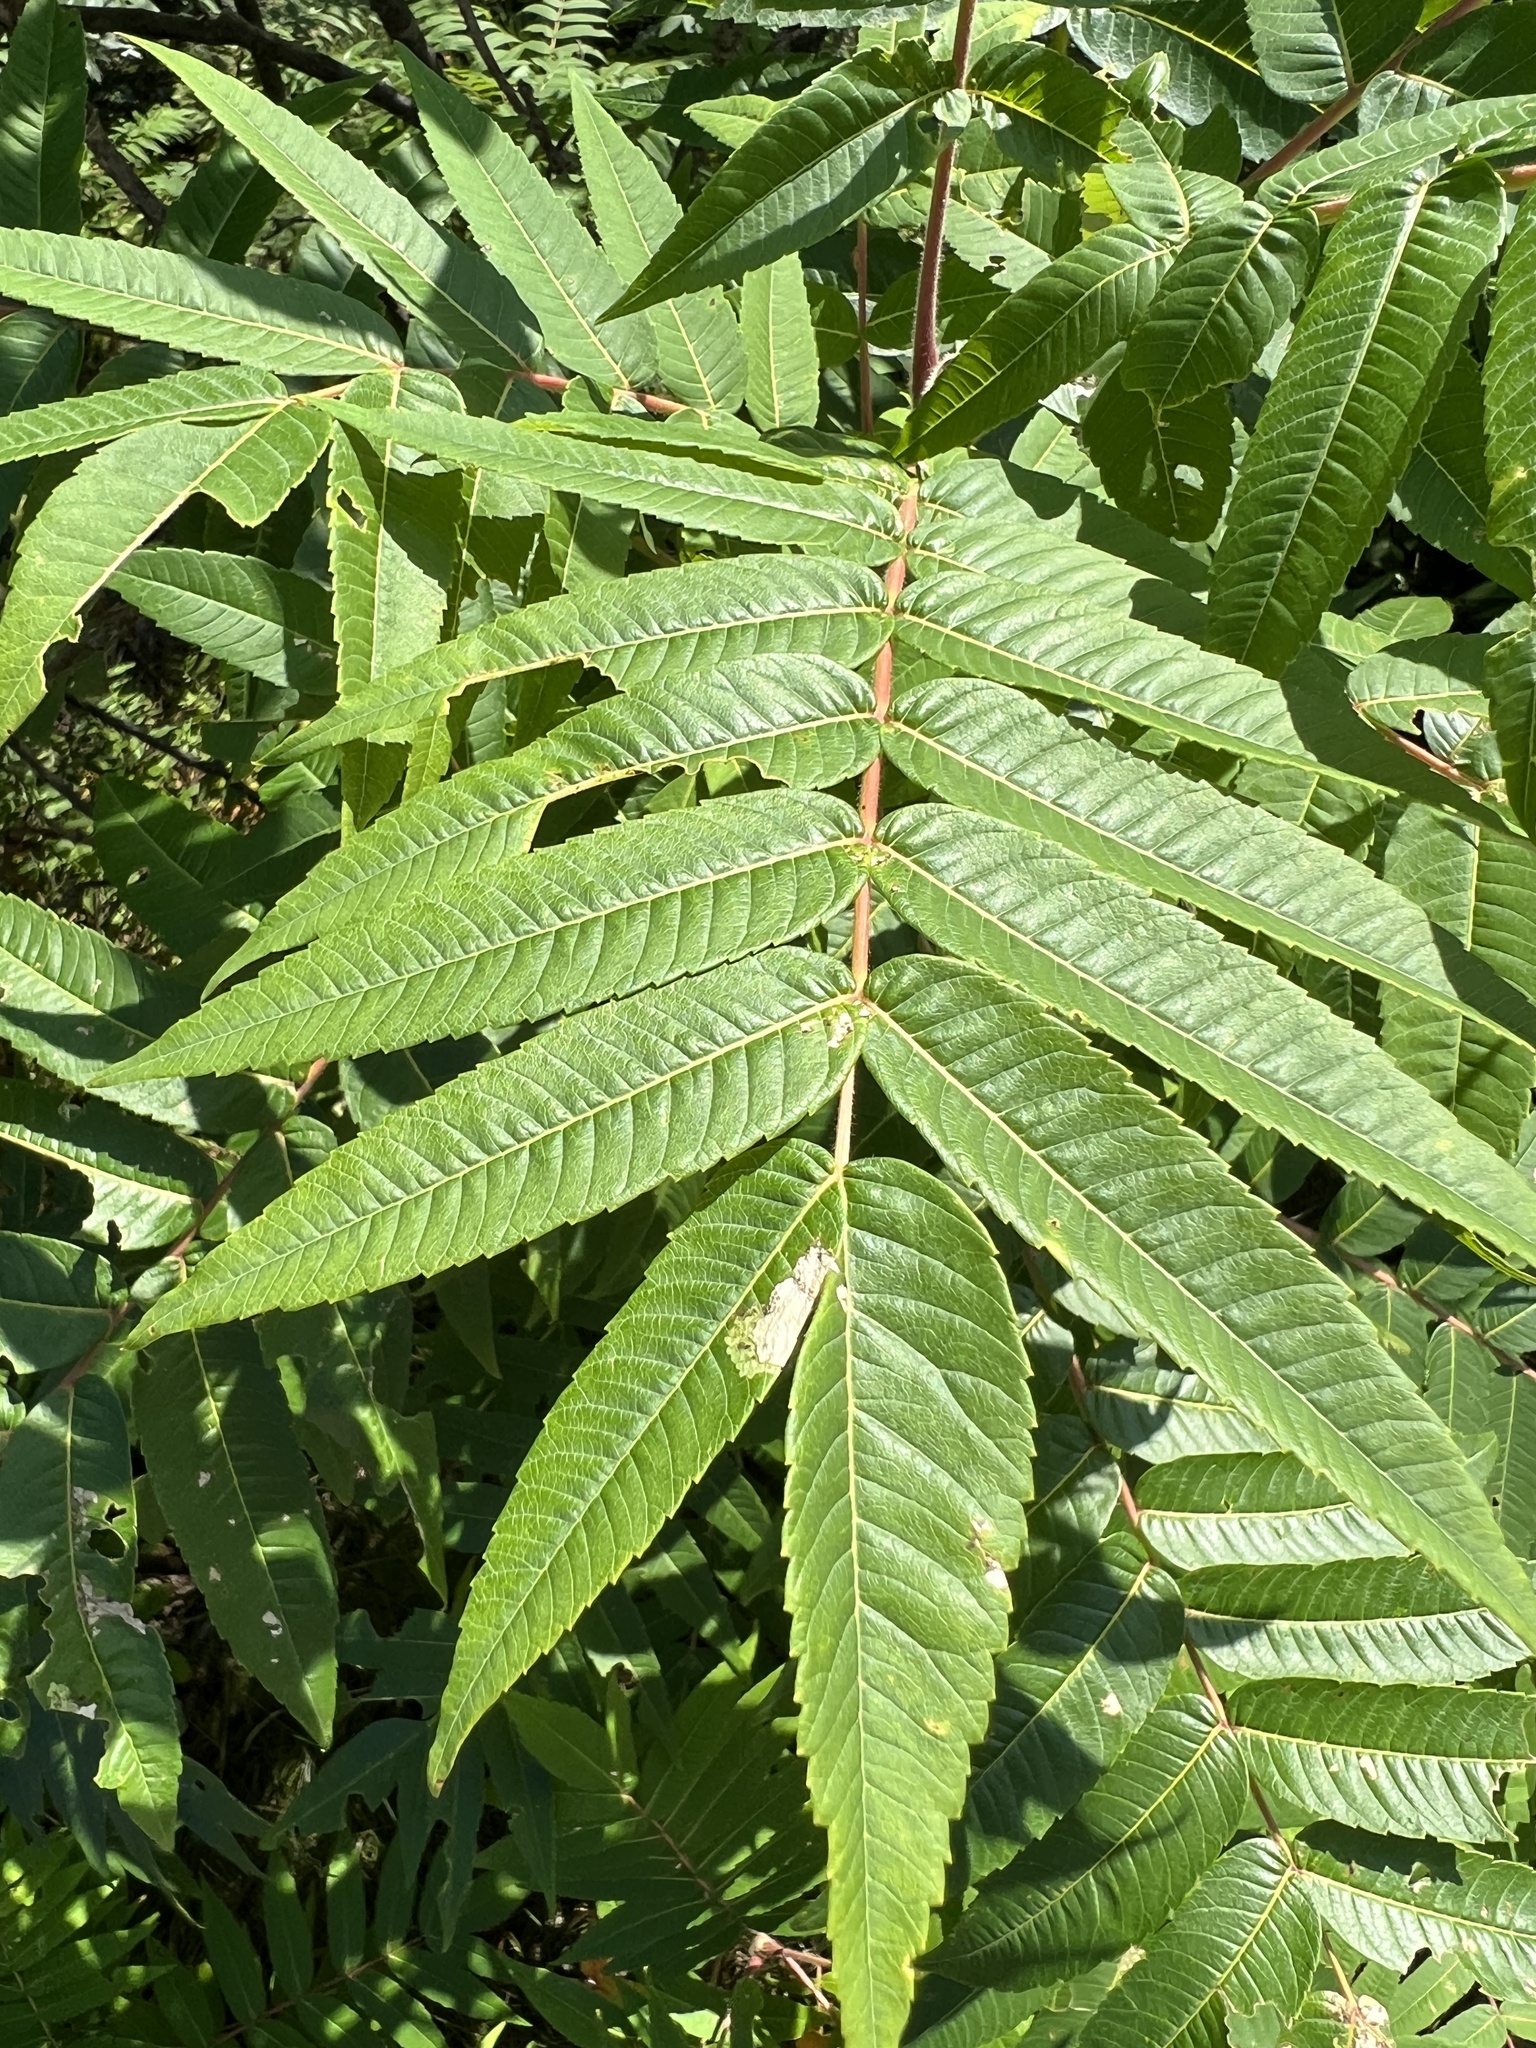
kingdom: Plantae
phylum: Tracheophyta
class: Magnoliopsida
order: Sapindales
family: Anacardiaceae
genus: Rhus
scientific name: Rhus typhina
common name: Staghorn sumac
